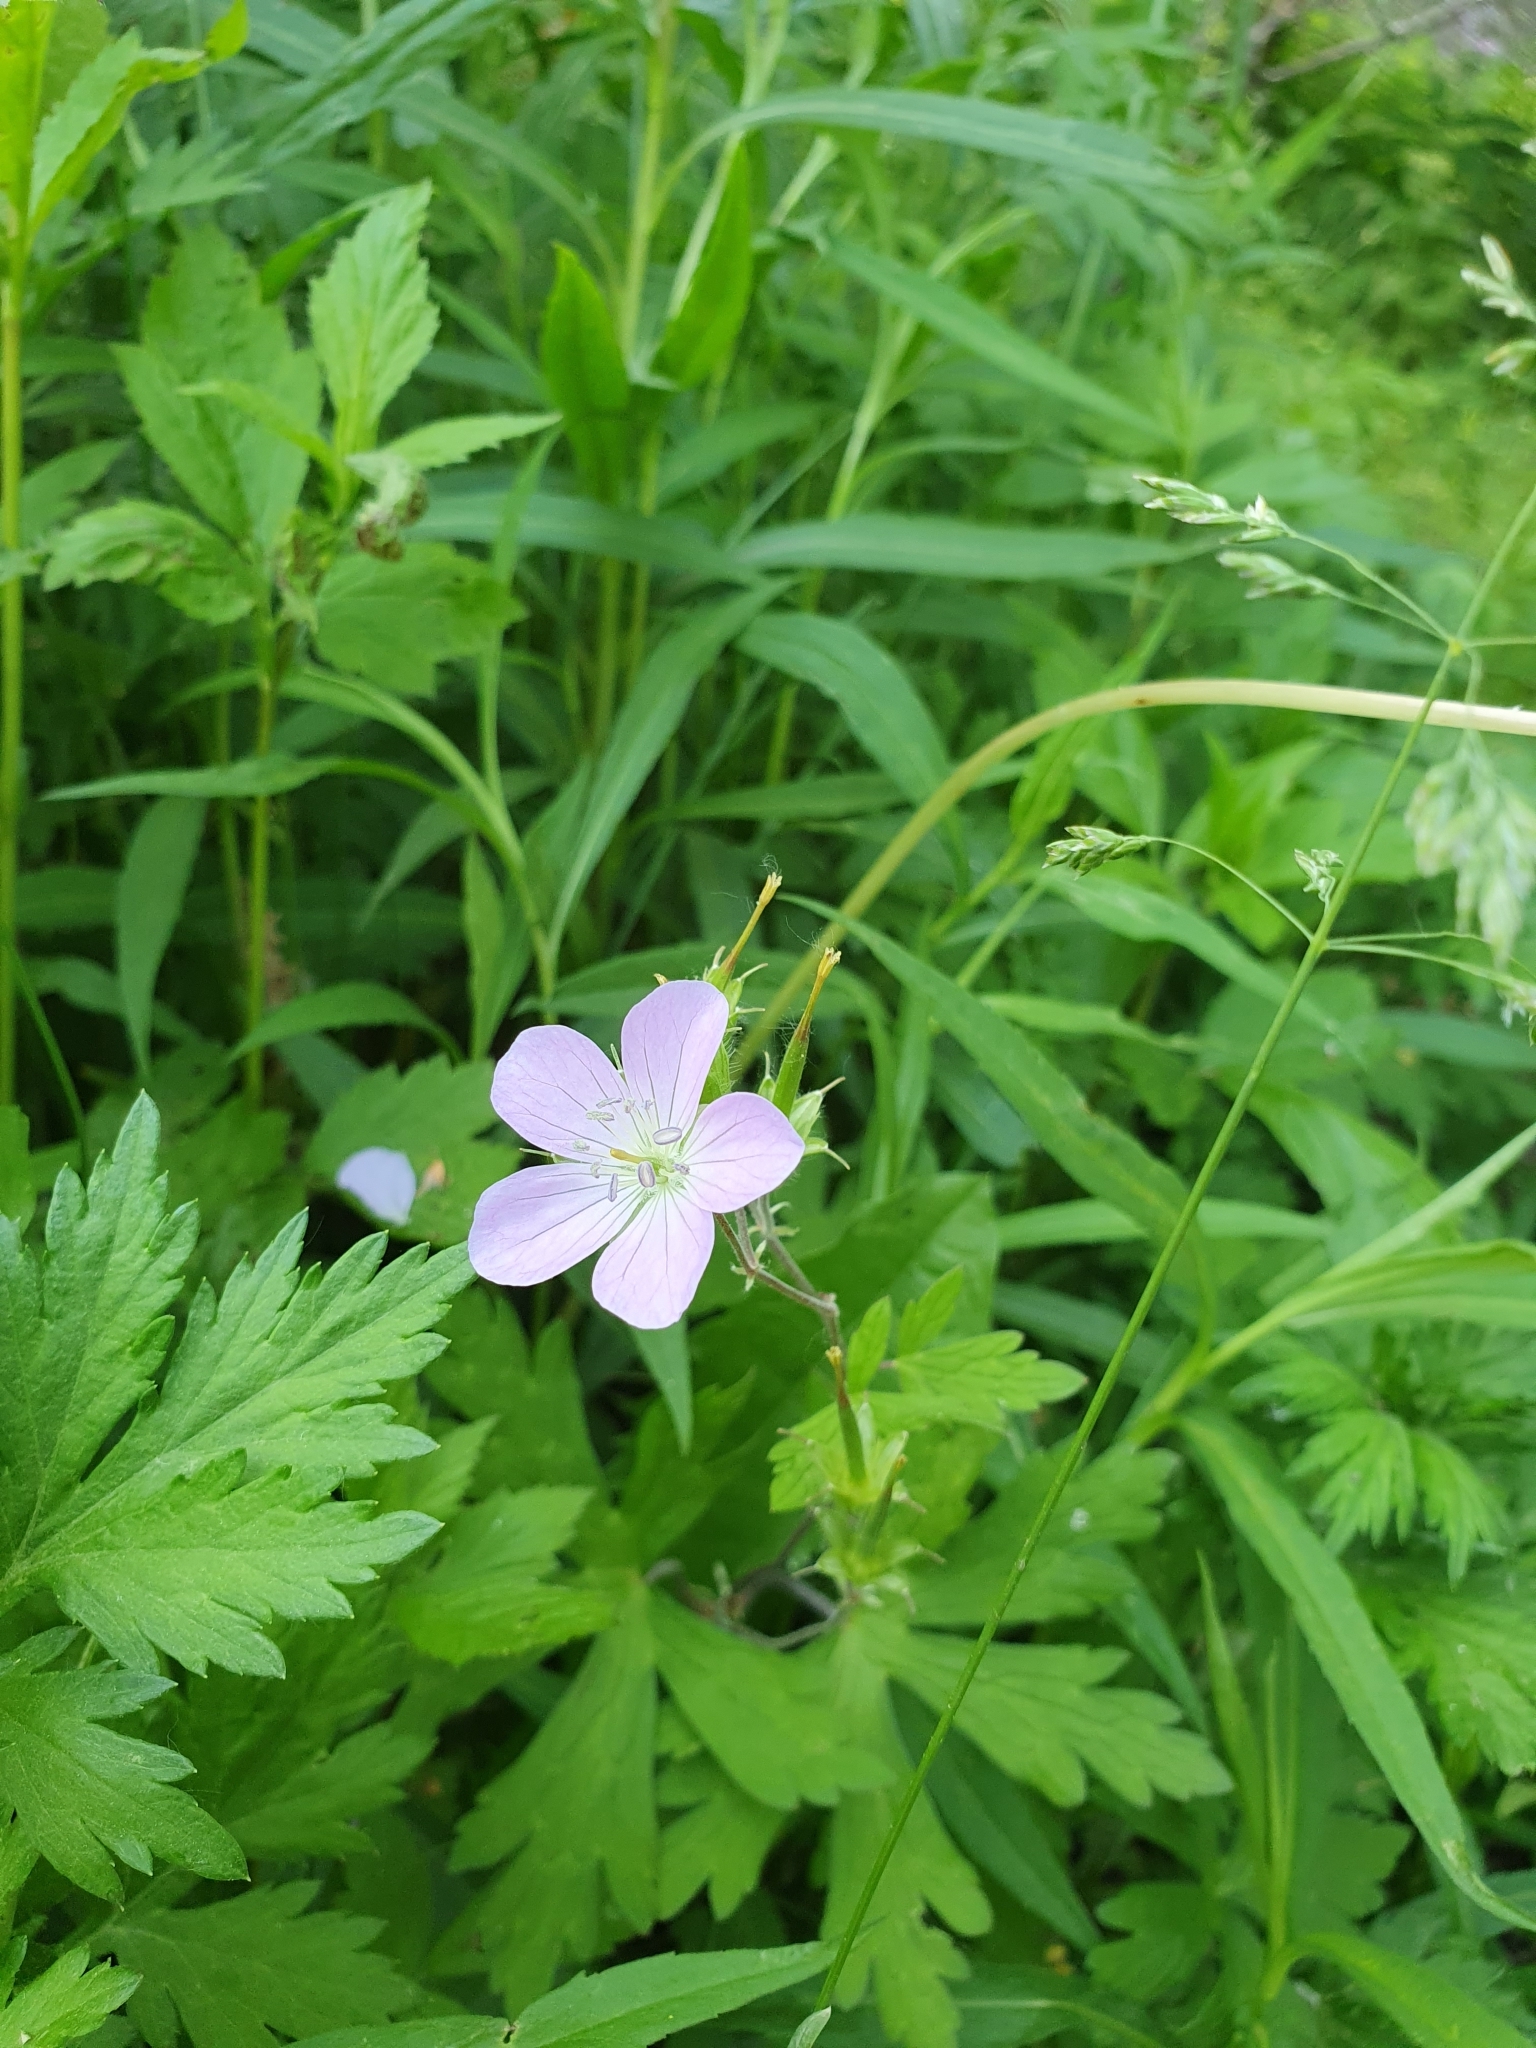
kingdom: Plantae
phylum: Tracheophyta
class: Magnoliopsida
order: Geraniales
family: Geraniaceae
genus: Geranium
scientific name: Geranium maculatum
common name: Spotted geranium
